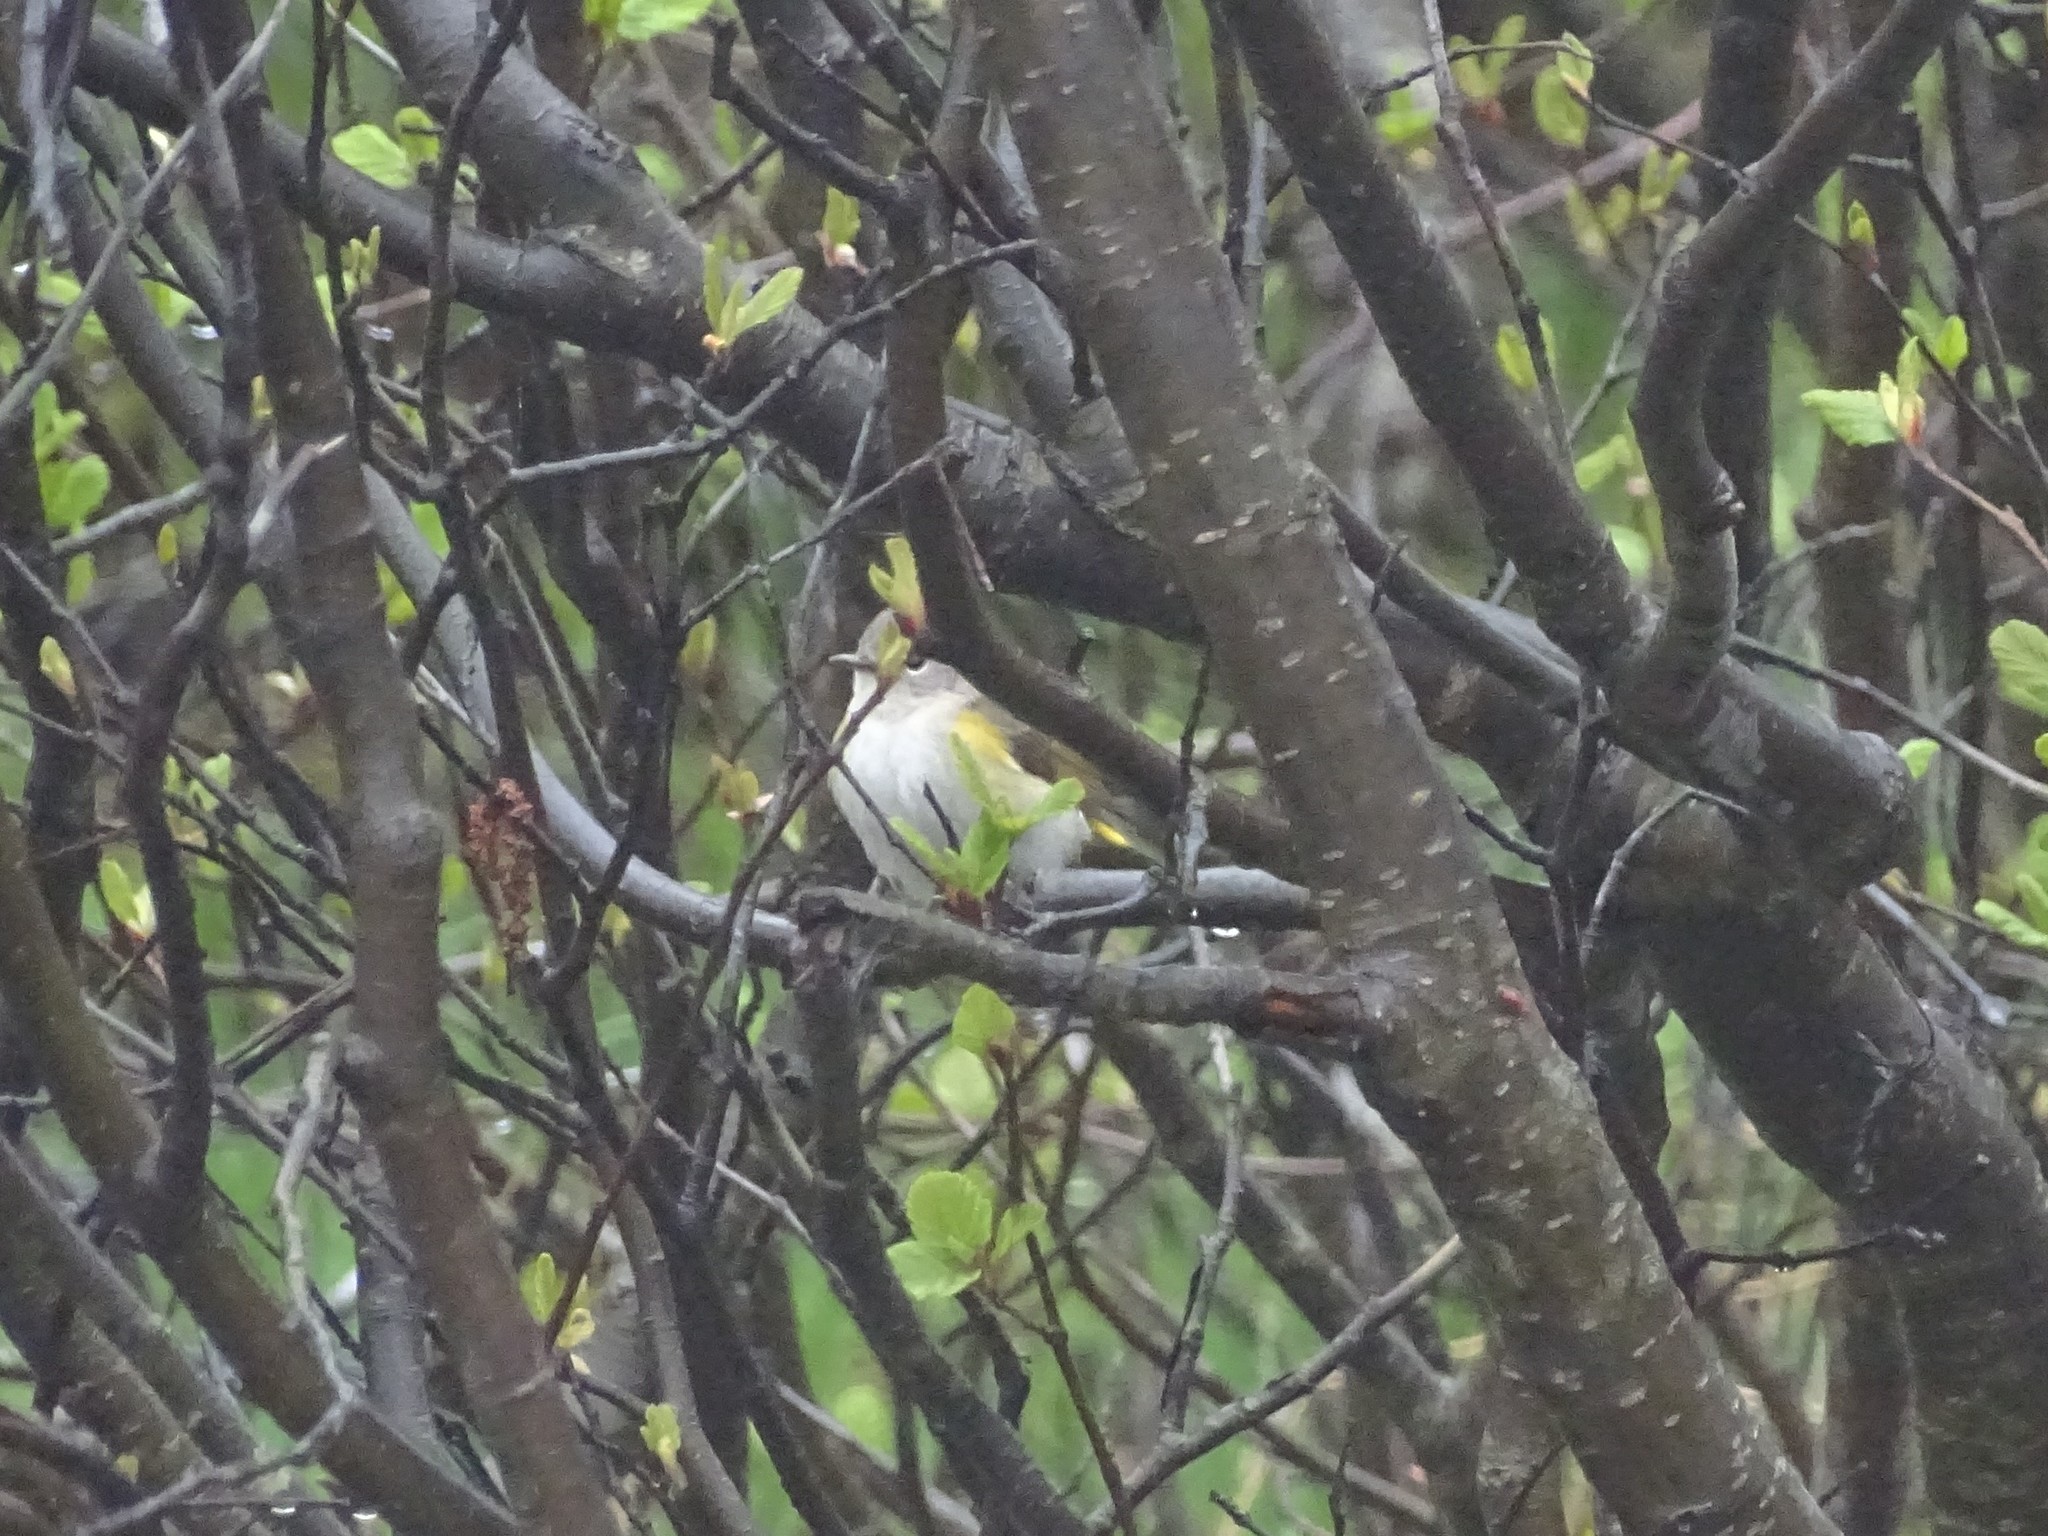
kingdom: Animalia
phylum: Chordata
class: Aves
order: Passeriformes
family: Parulidae
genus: Setophaga
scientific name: Setophaga ruticilla
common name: American redstart
